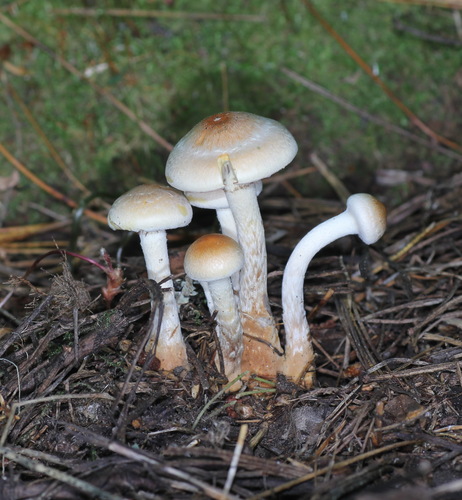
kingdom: Fungi
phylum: Basidiomycota
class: Agaricomycetes
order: Agaricales
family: Hymenogastraceae
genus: Hebeloma
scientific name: Hebeloma radicosum
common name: Rooting poisonpie
